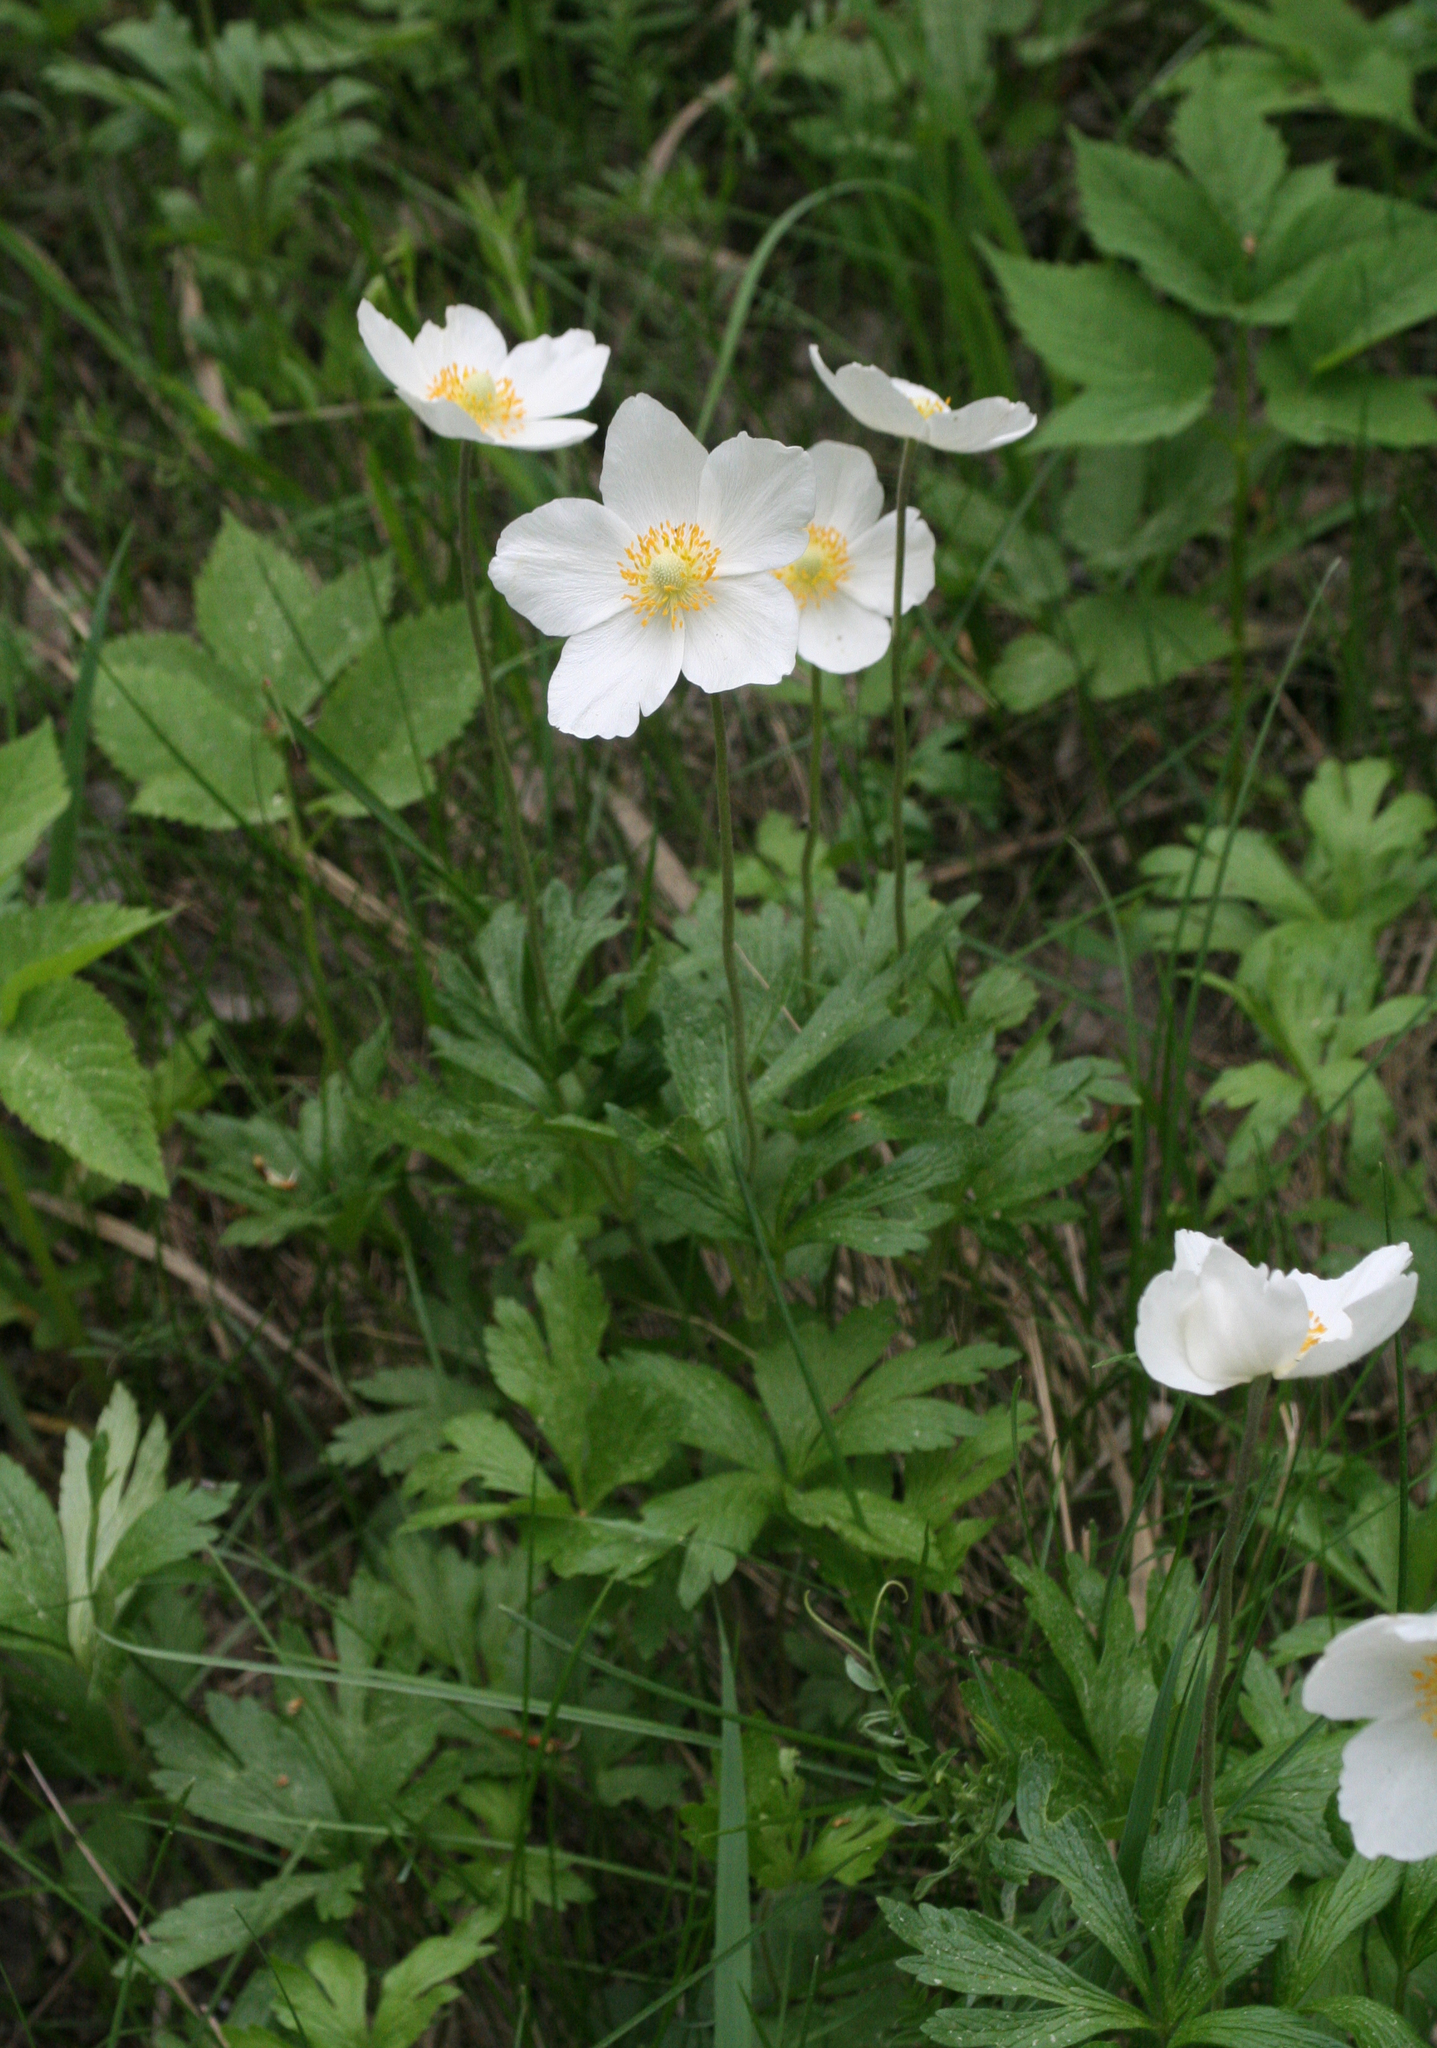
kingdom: Plantae
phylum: Tracheophyta
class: Magnoliopsida
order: Ranunculales
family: Ranunculaceae
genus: Anemone
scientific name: Anemone sylvestris
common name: Snowdrop anemone
